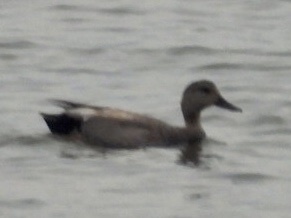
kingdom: Animalia
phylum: Chordata
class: Aves
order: Anseriformes
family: Anatidae
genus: Mareca
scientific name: Mareca strepera
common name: Gadwall
